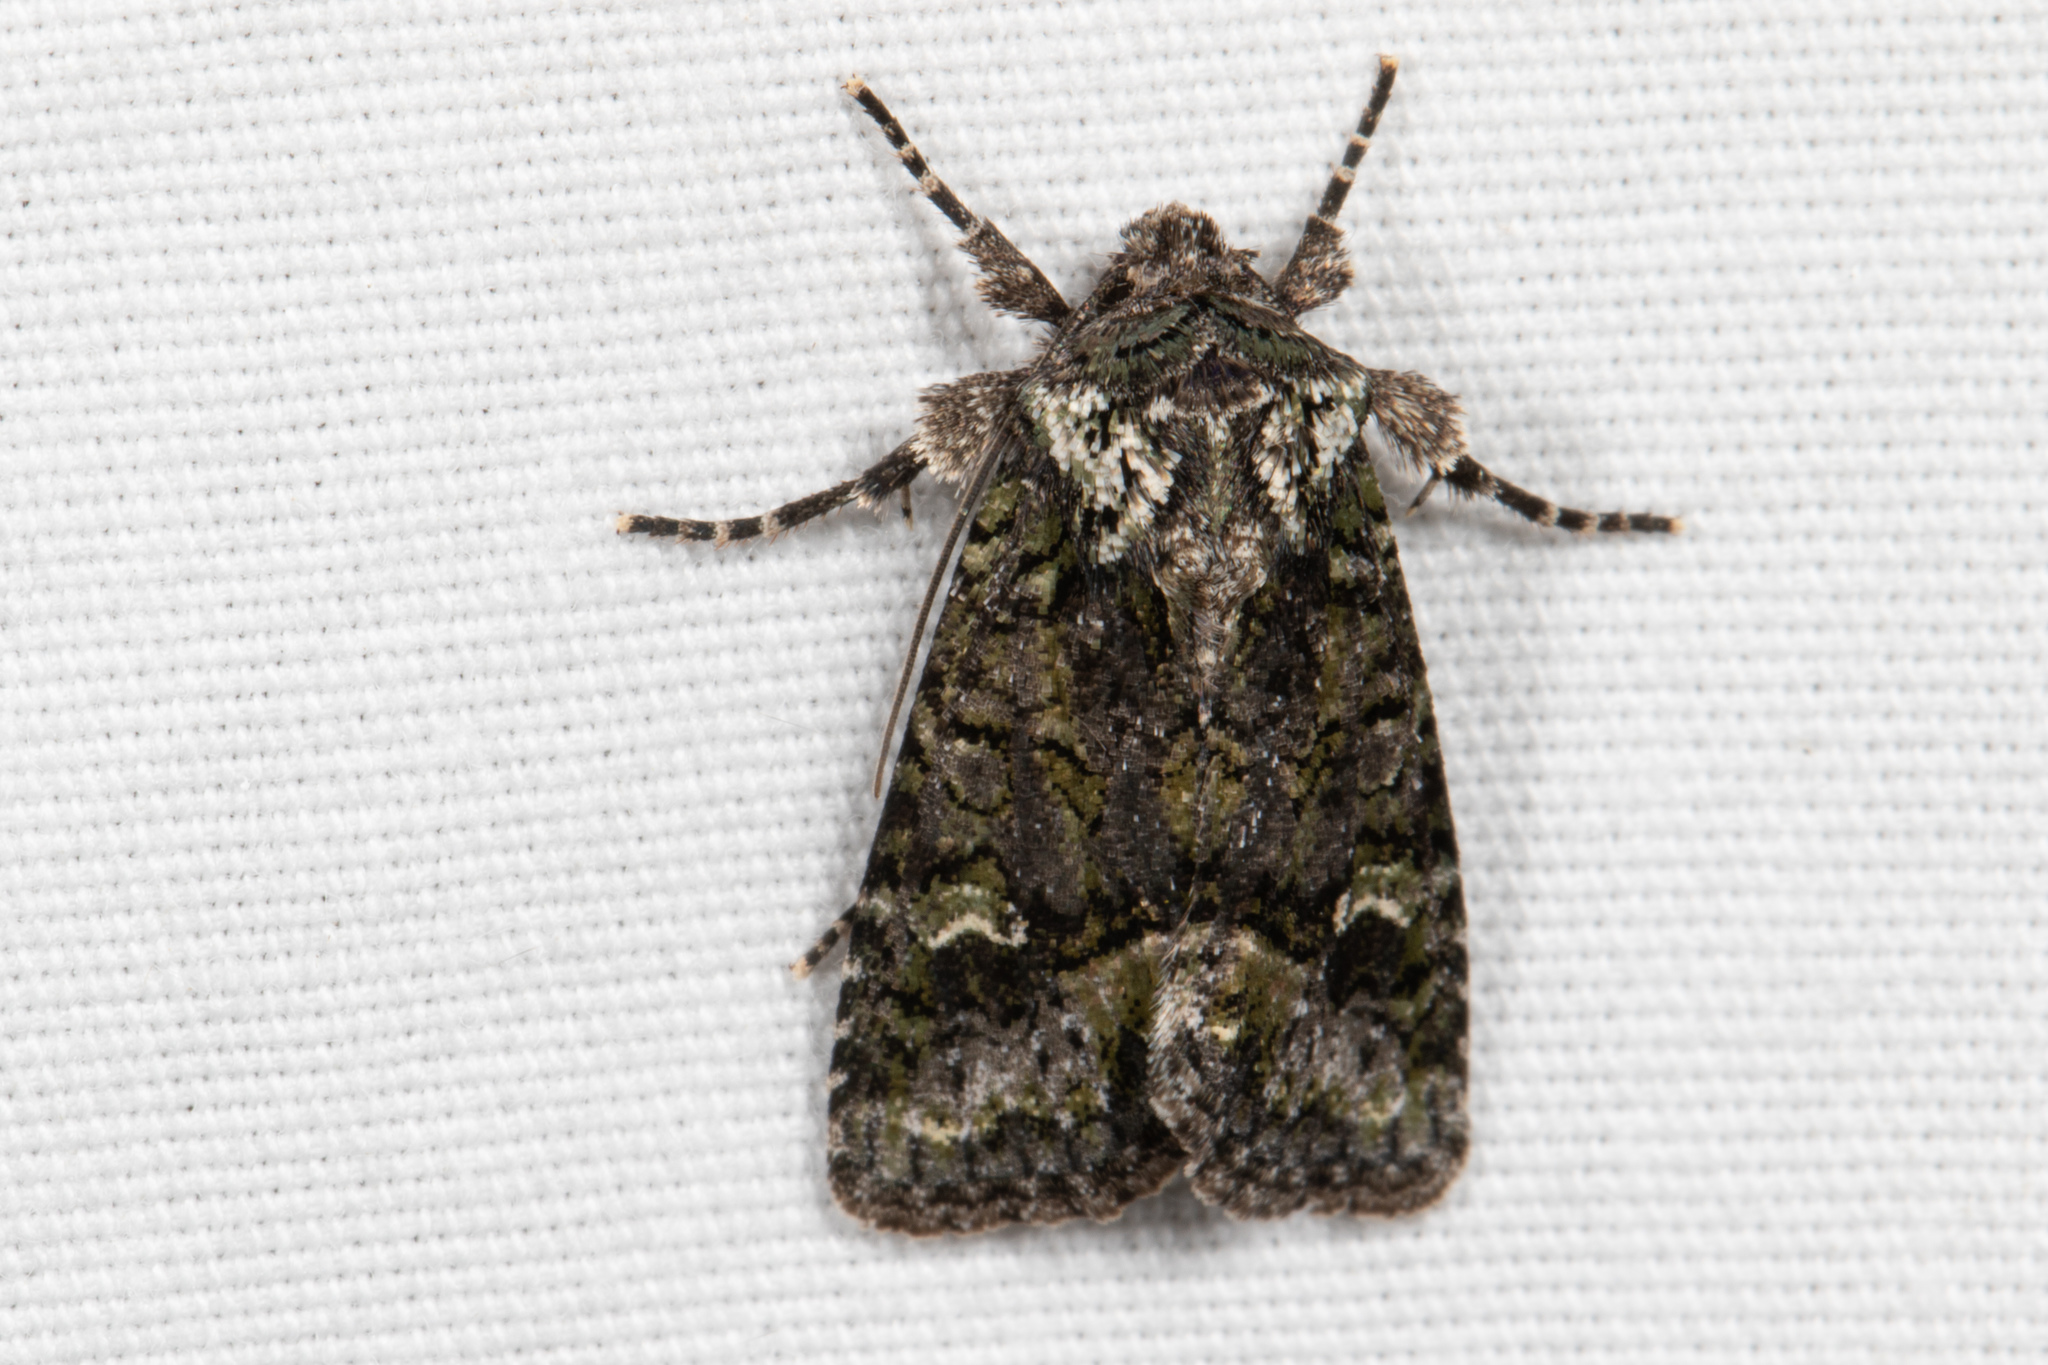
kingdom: Animalia
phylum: Arthropoda
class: Insecta
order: Lepidoptera
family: Noctuidae
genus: Lacinipolia
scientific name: Lacinipolia olivacea
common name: Olive arches moth
